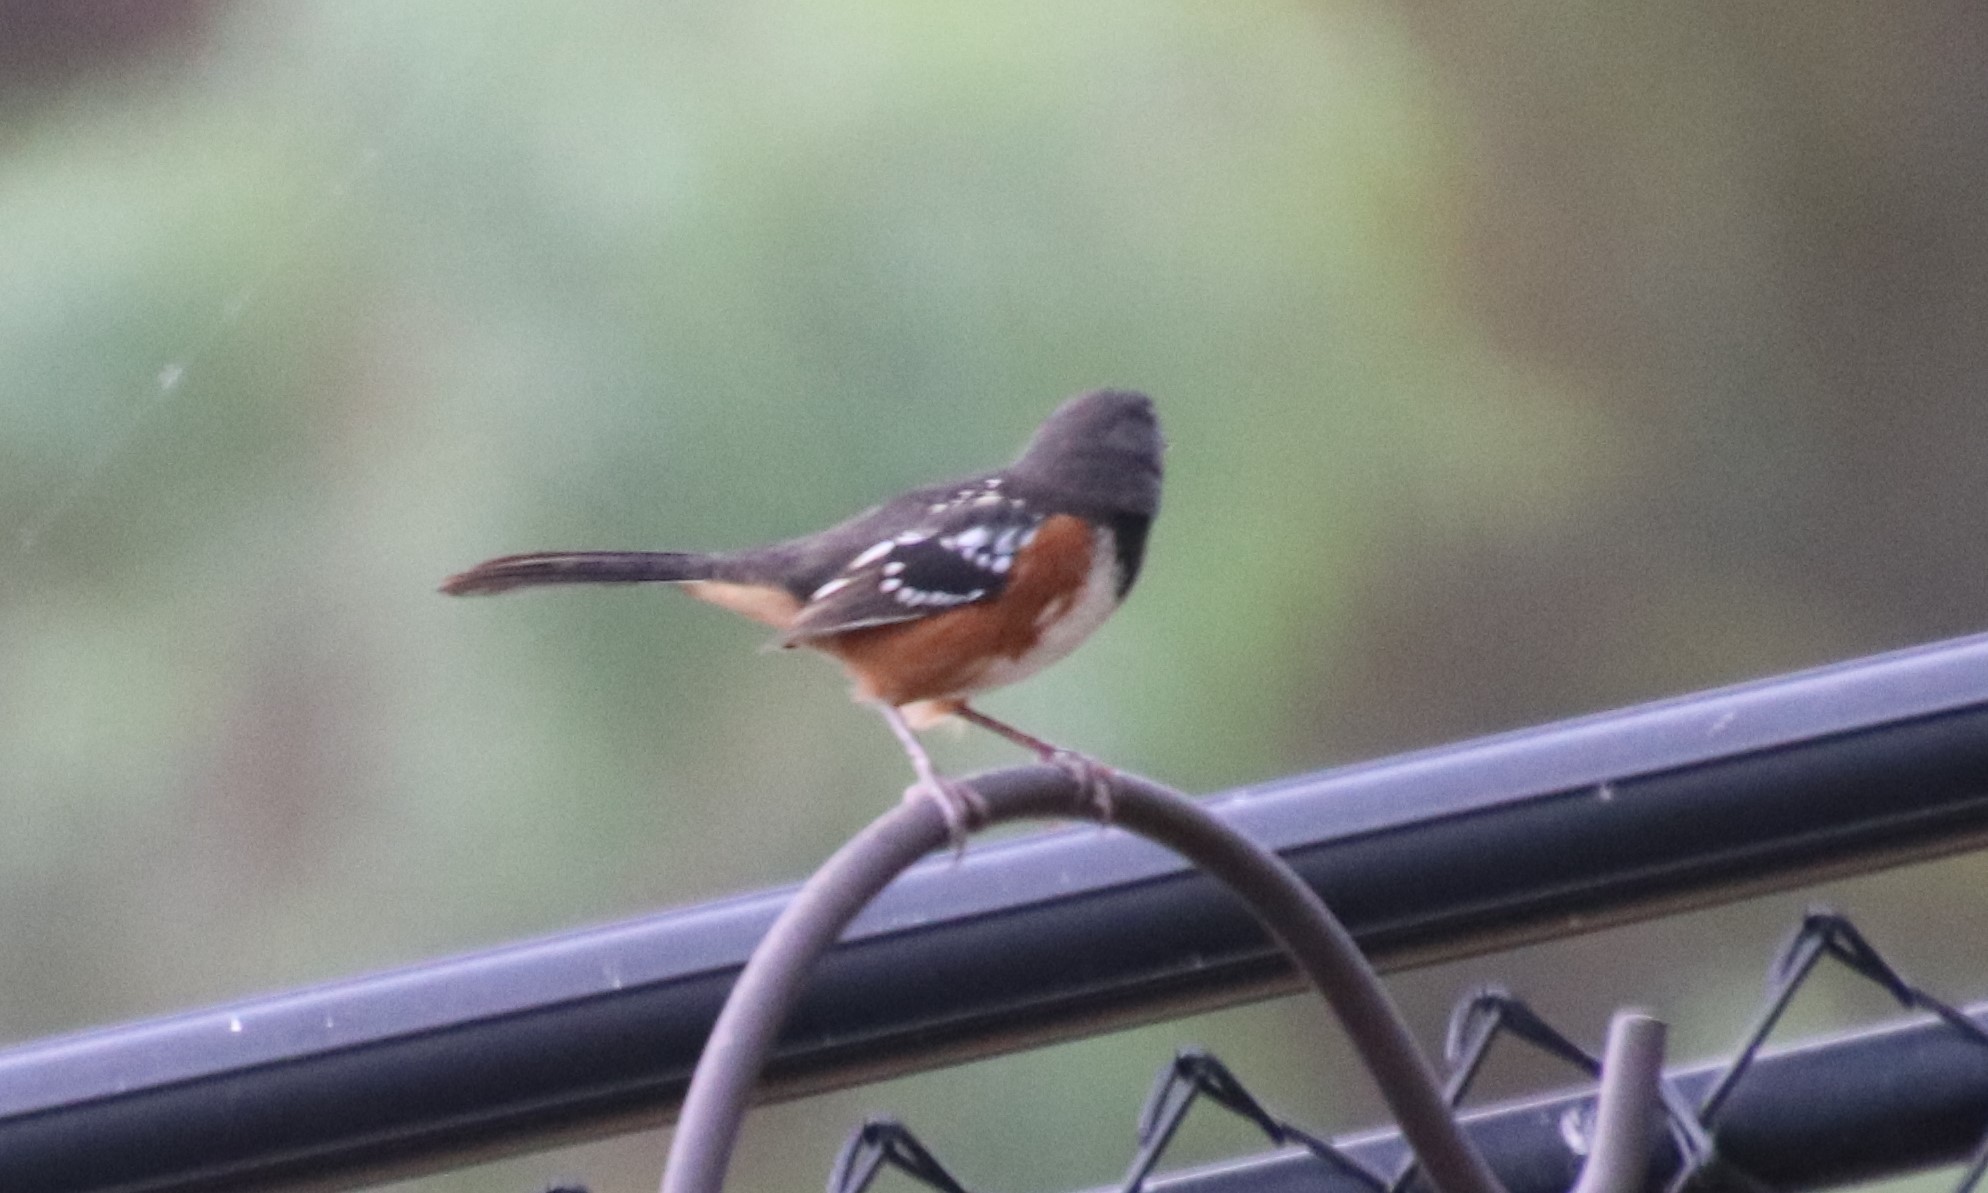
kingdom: Animalia
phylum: Chordata
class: Aves
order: Passeriformes
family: Passerellidae
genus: Pipilo
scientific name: Pipilo maculatus
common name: Spotted towhee
